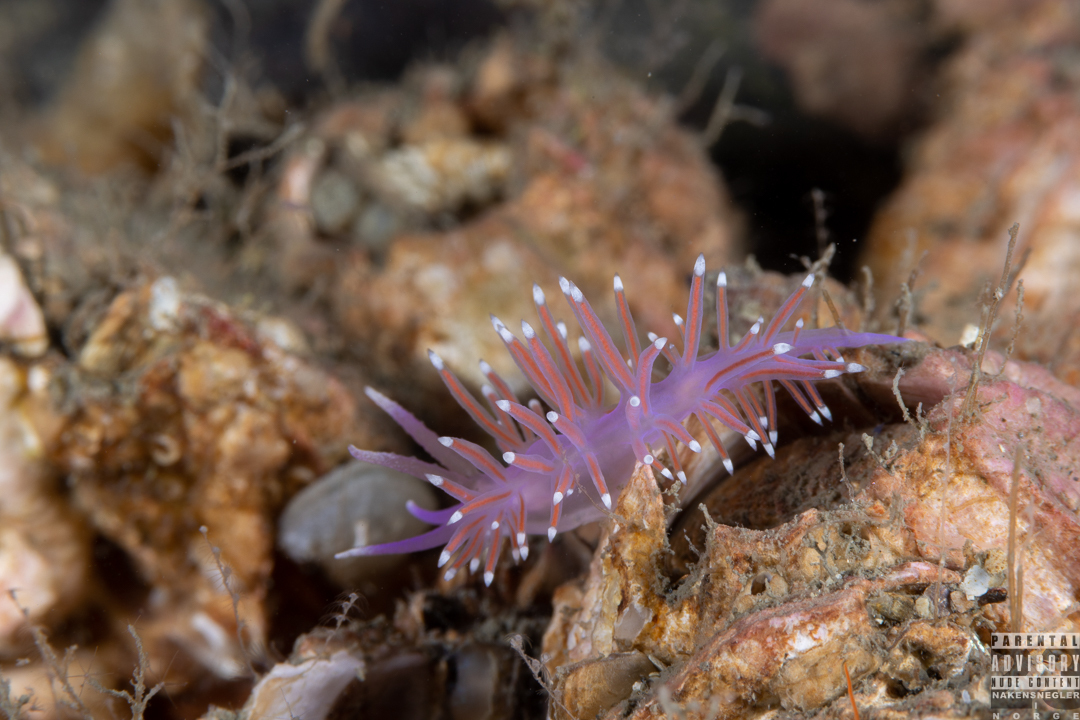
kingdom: Animalia
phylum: Mollusca
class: Gastropoda
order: Nudibranchia
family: Flabellinidae
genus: Edmundsella
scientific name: Edmundsella pedata
